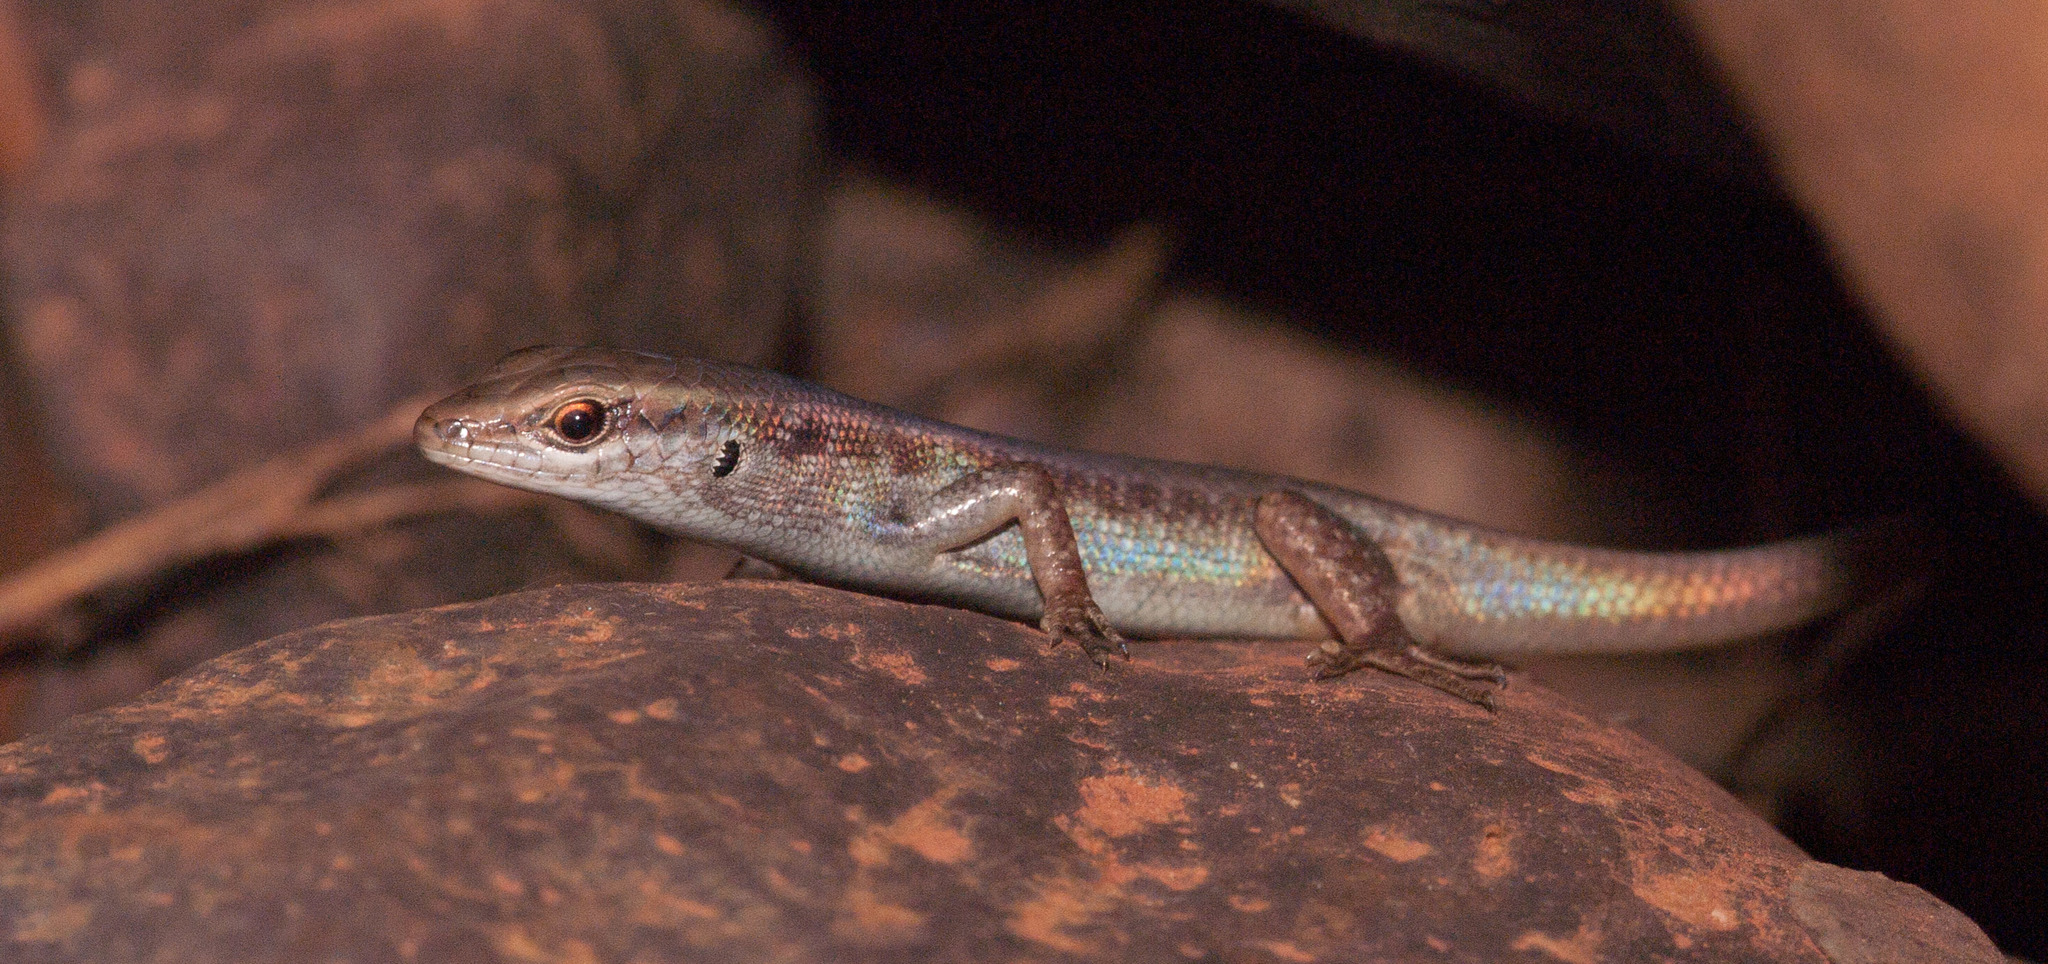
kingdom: Animalia
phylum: Chordata
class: Squamata
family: Scincidae
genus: Carlia
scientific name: Carlia sexdentata
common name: Closed-litter rainbow-skink
